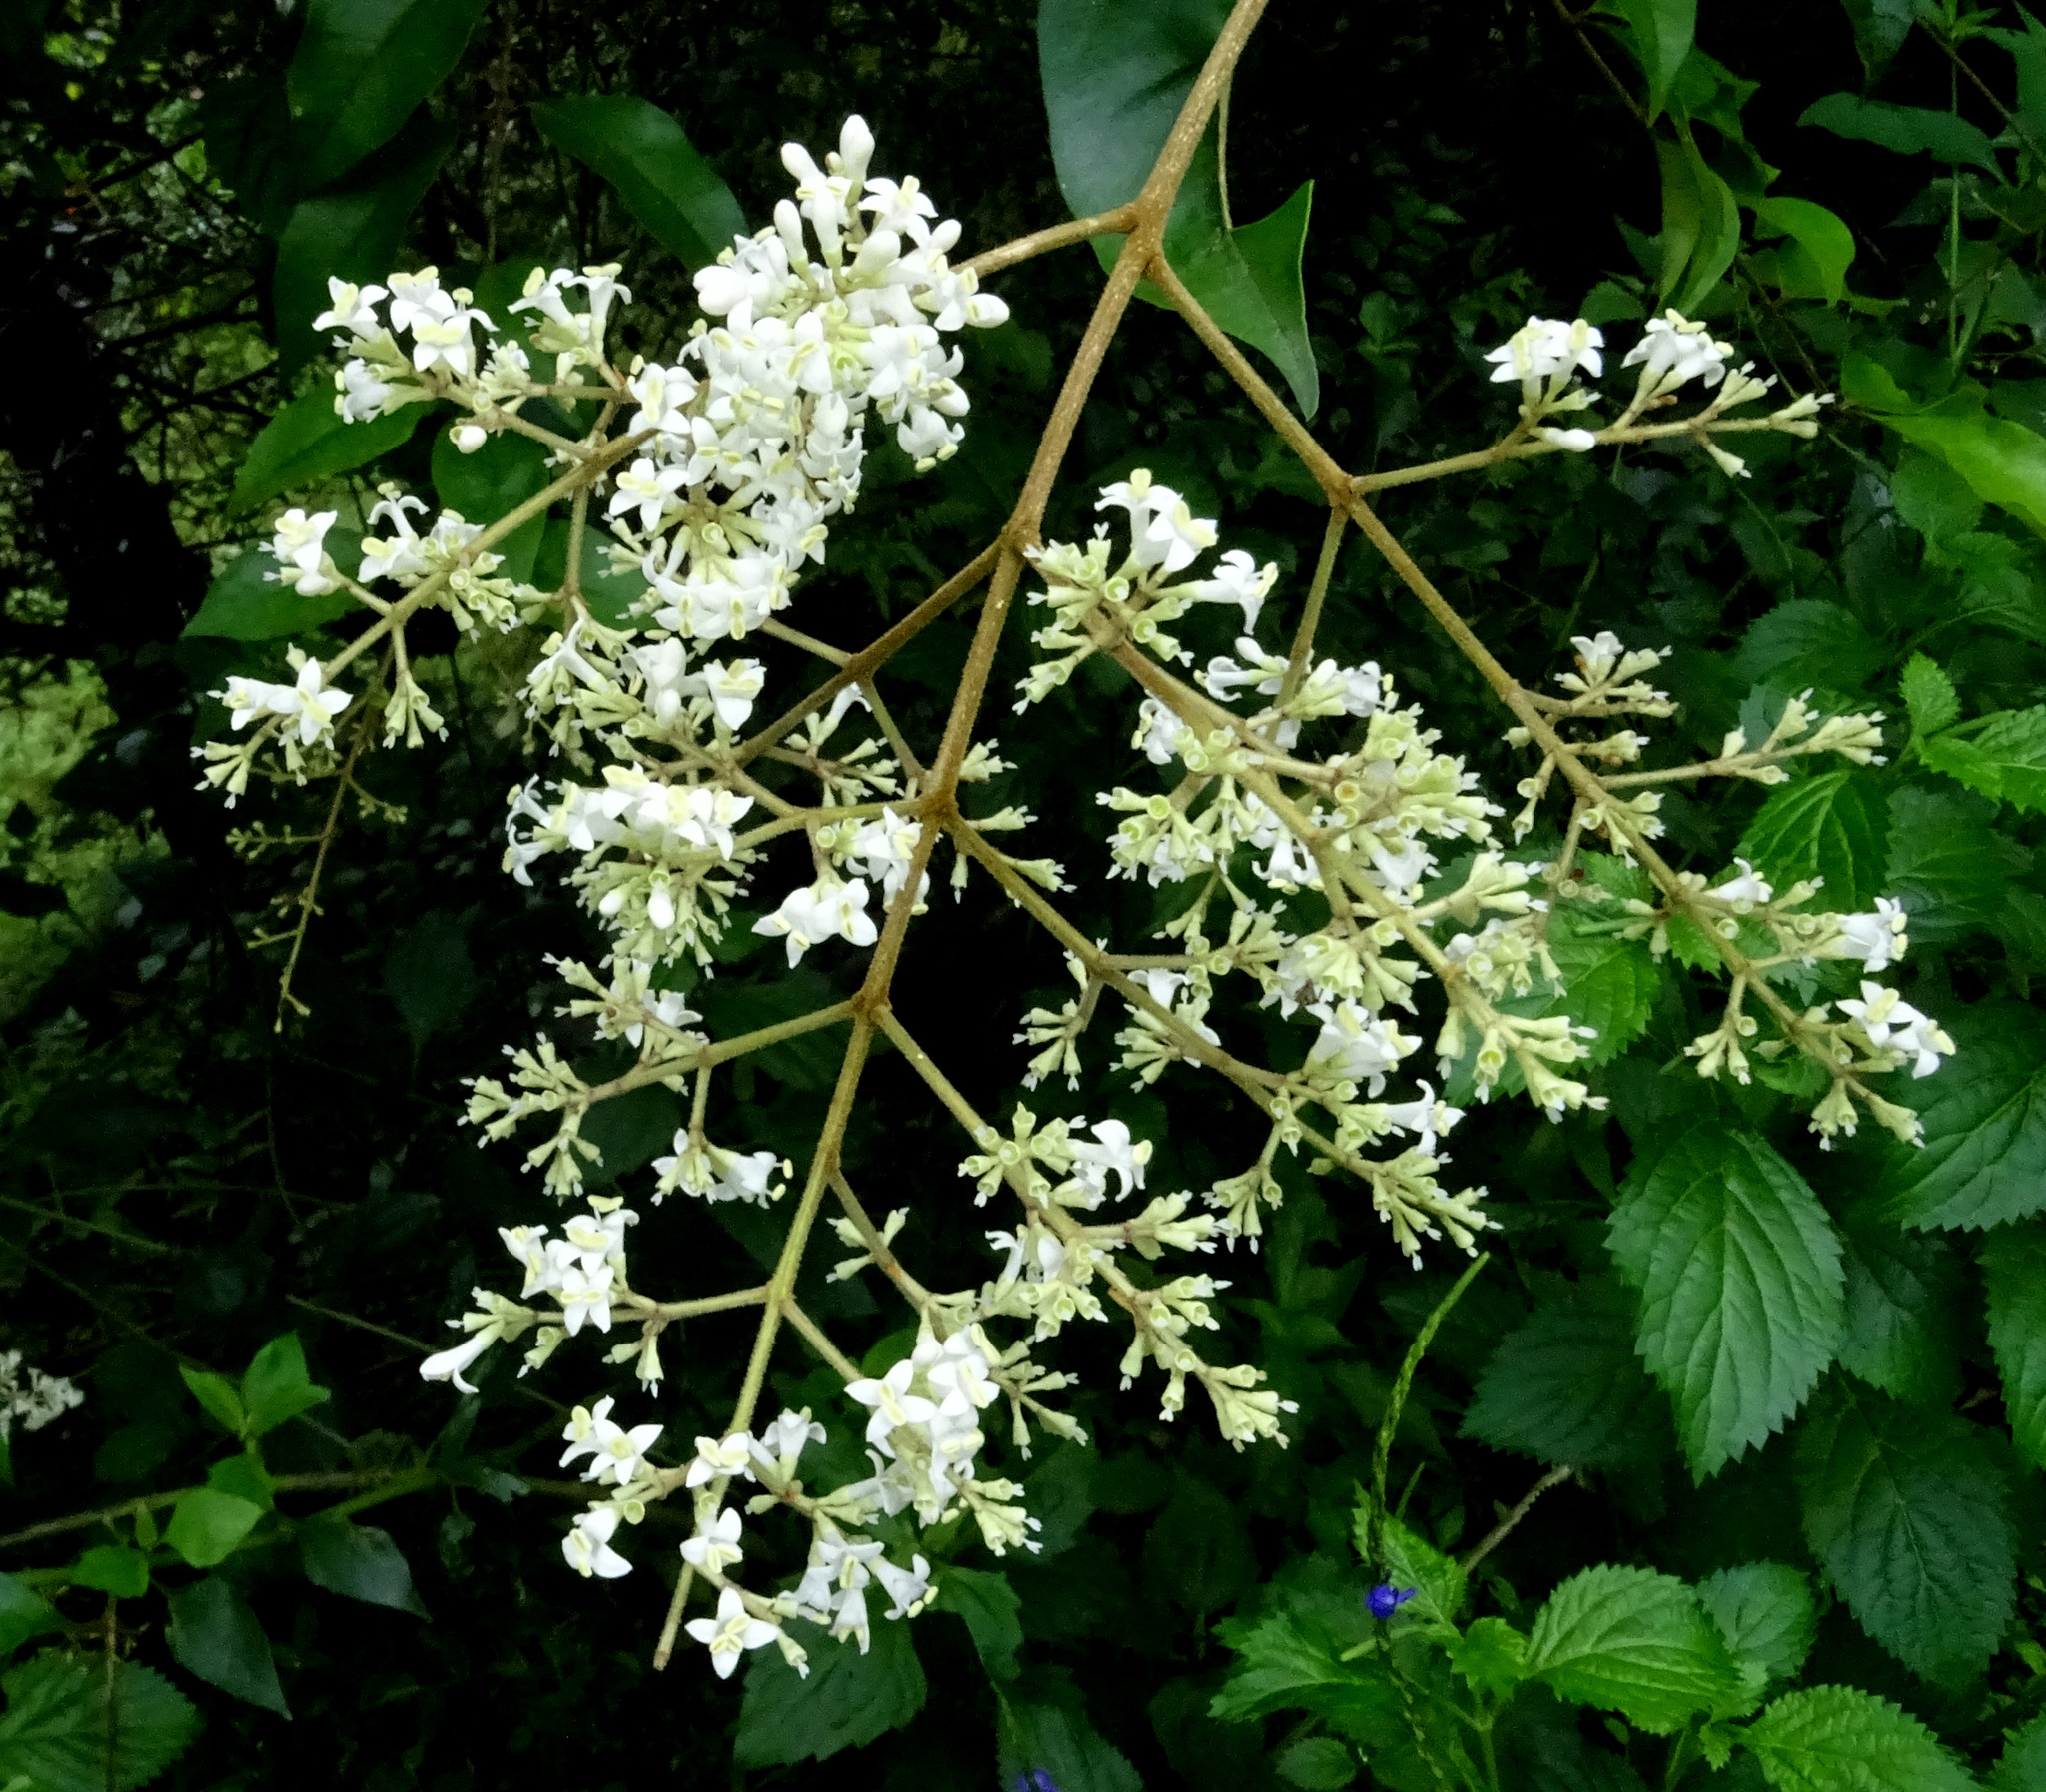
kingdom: Plantae
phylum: Tracheophyta
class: Magnoliopsida
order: Lamiales
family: Oleaceae
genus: Ligustrum
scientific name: Ligustrum robustum
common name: Tree privet
